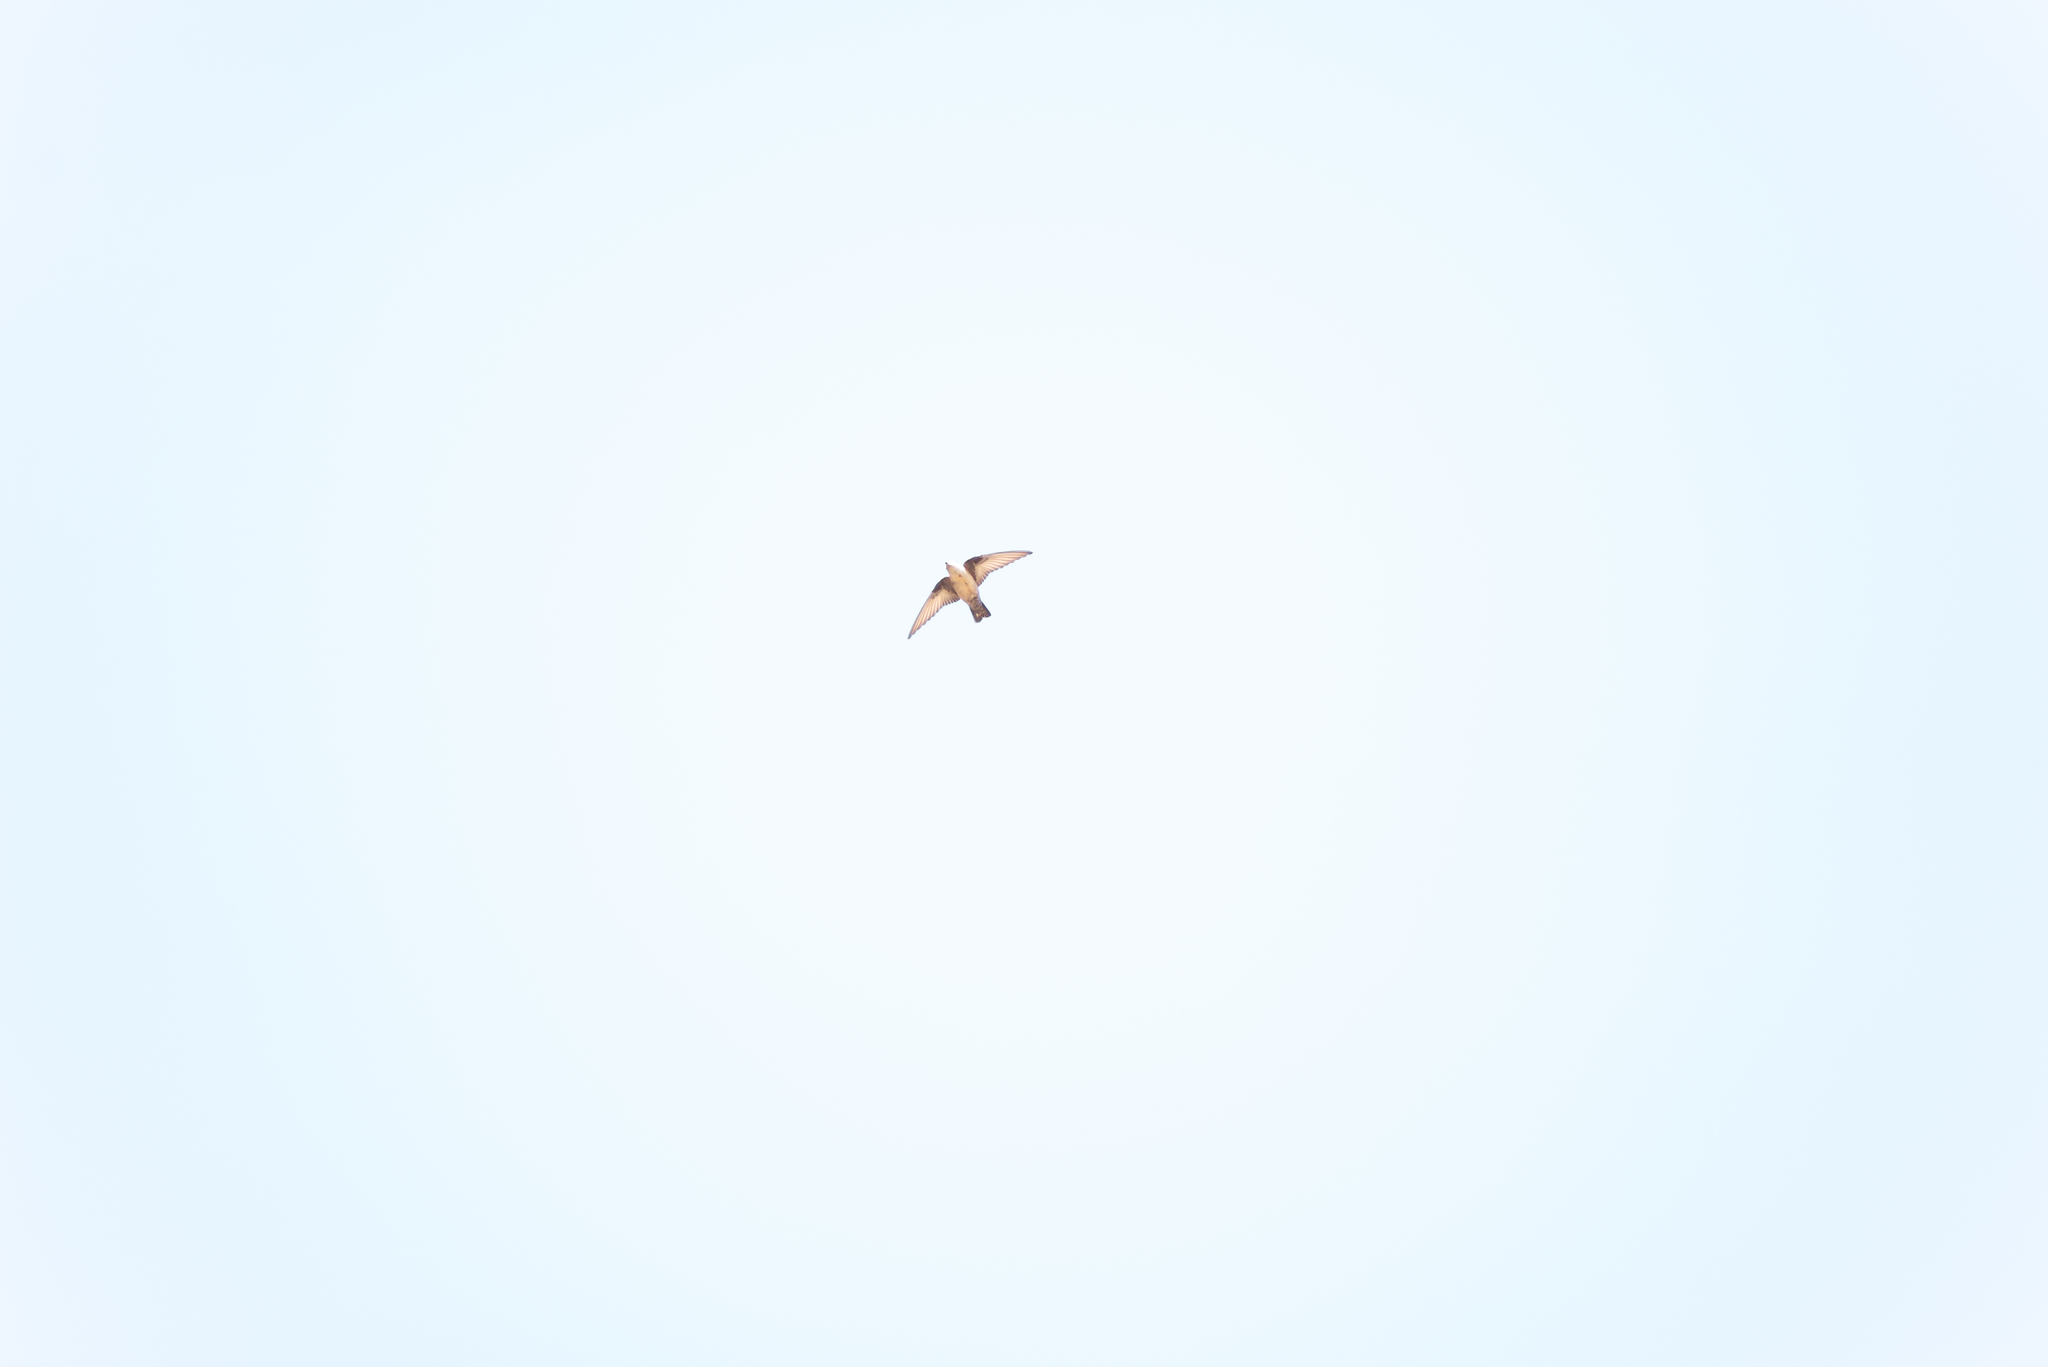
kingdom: Animalia
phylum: Chordata
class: Aves
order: Passeriformes
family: Hirundinidae
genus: Ptyonoprogne
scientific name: Ptyonoprogne rupestris
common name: Eurasian crag martin
